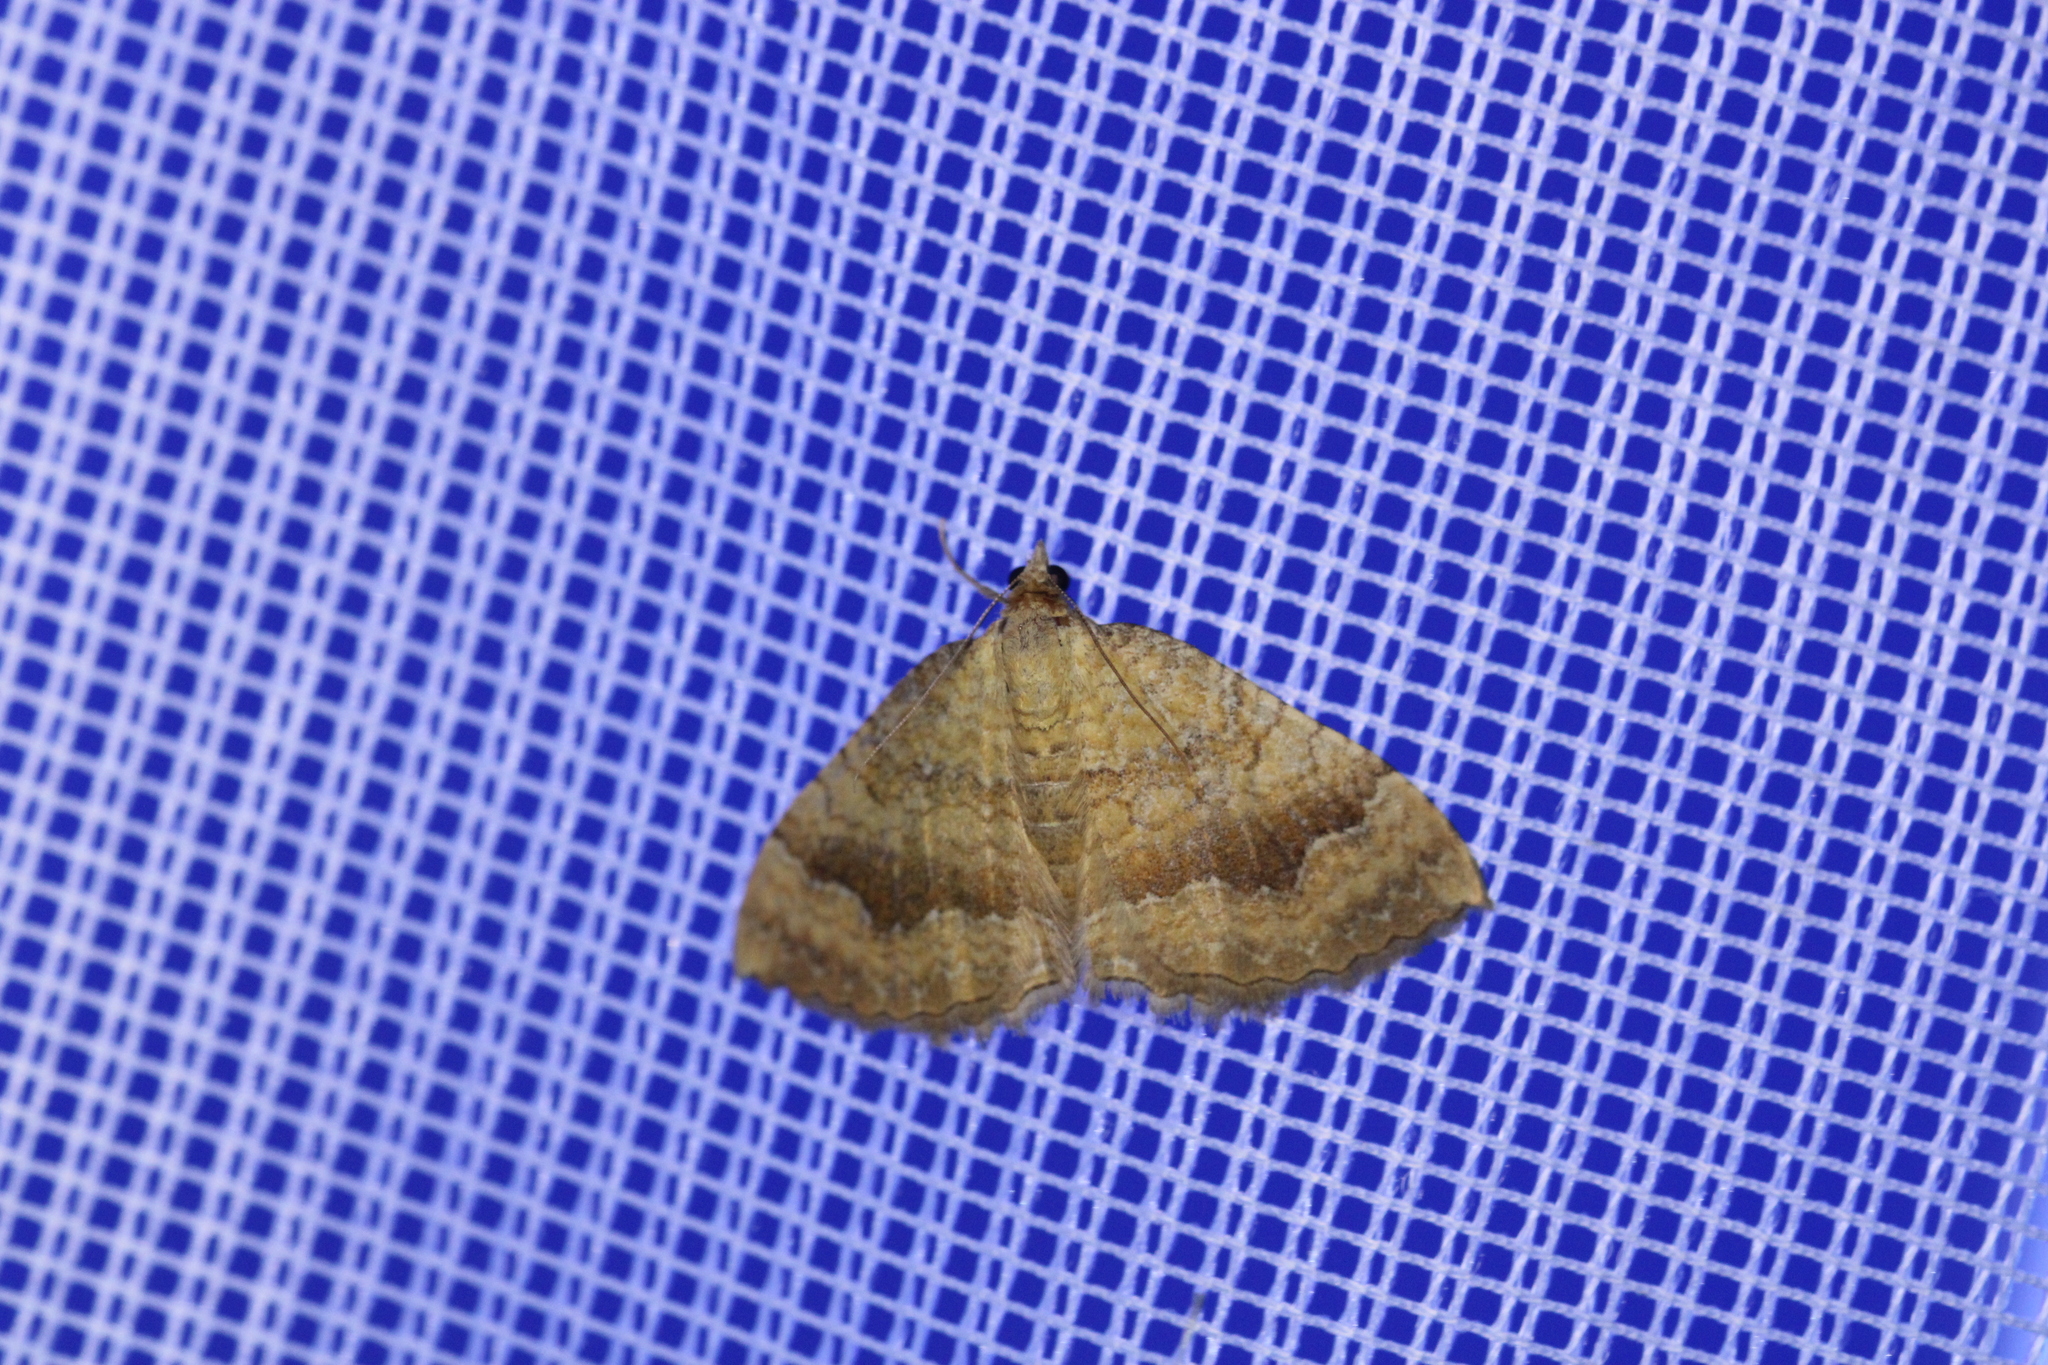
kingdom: Animalia
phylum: Arthropoda
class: Insecta
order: Lepidoptera
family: Geometridae
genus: Camptogramma
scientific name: Camptogramma bilineata
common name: Yellow shell
